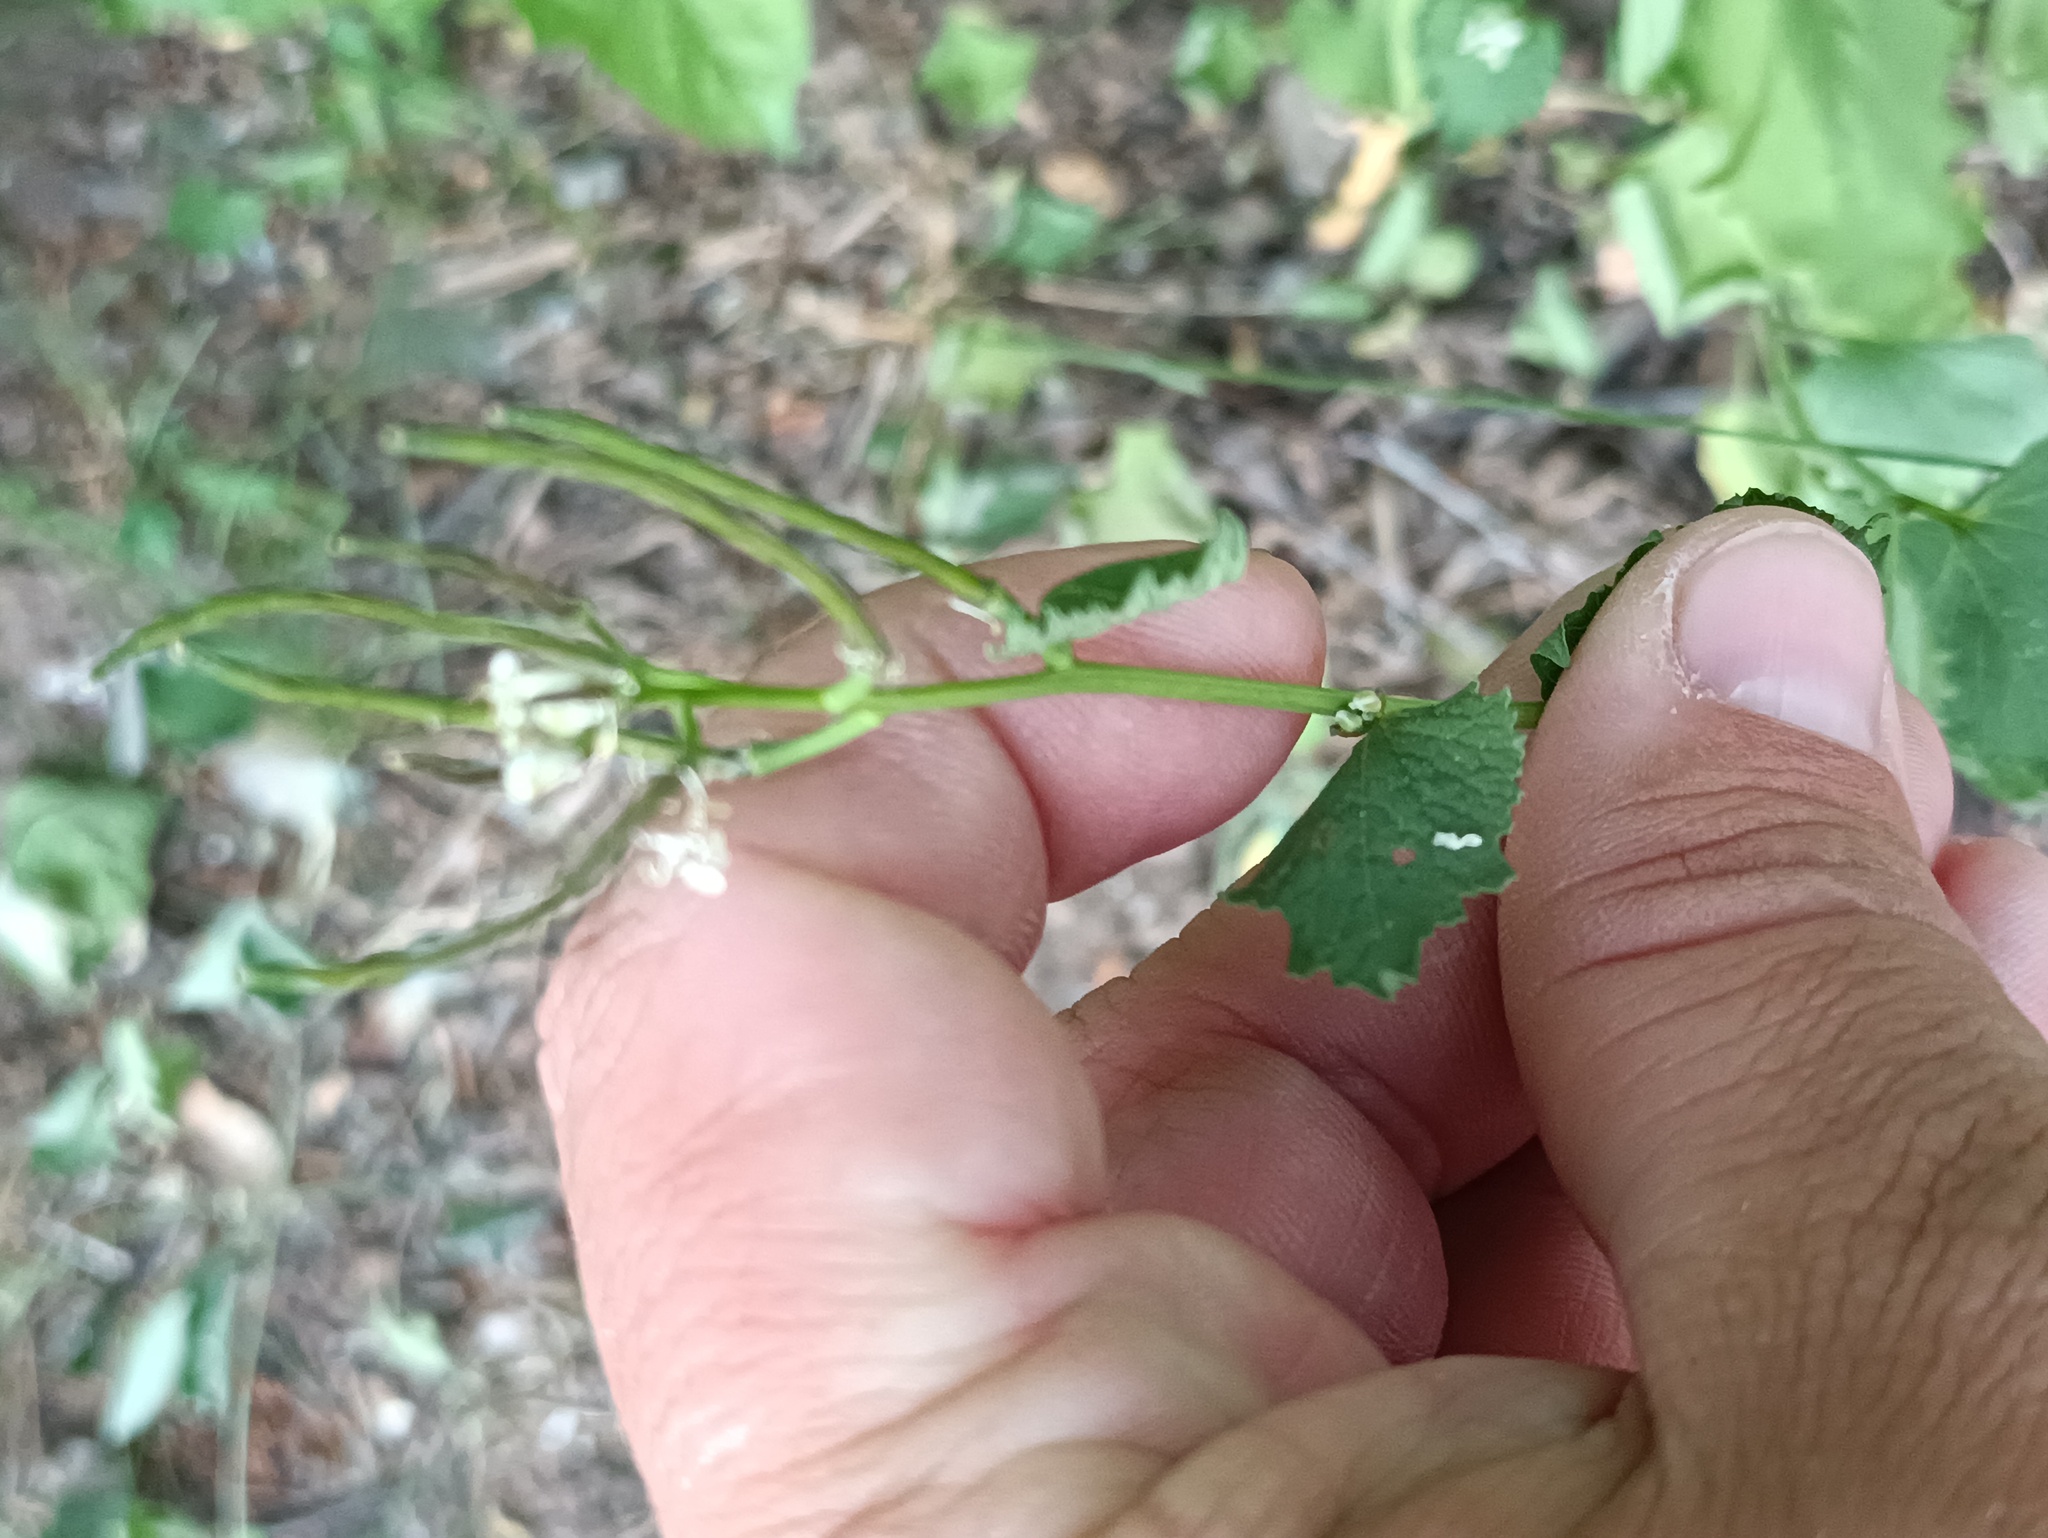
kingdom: Plantae
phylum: Tracheophyta
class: Magnoliopsida
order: Brassicales
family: Brassicaceae
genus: Alliaria
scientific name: Alliaria petiolata
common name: Garlic mustard
